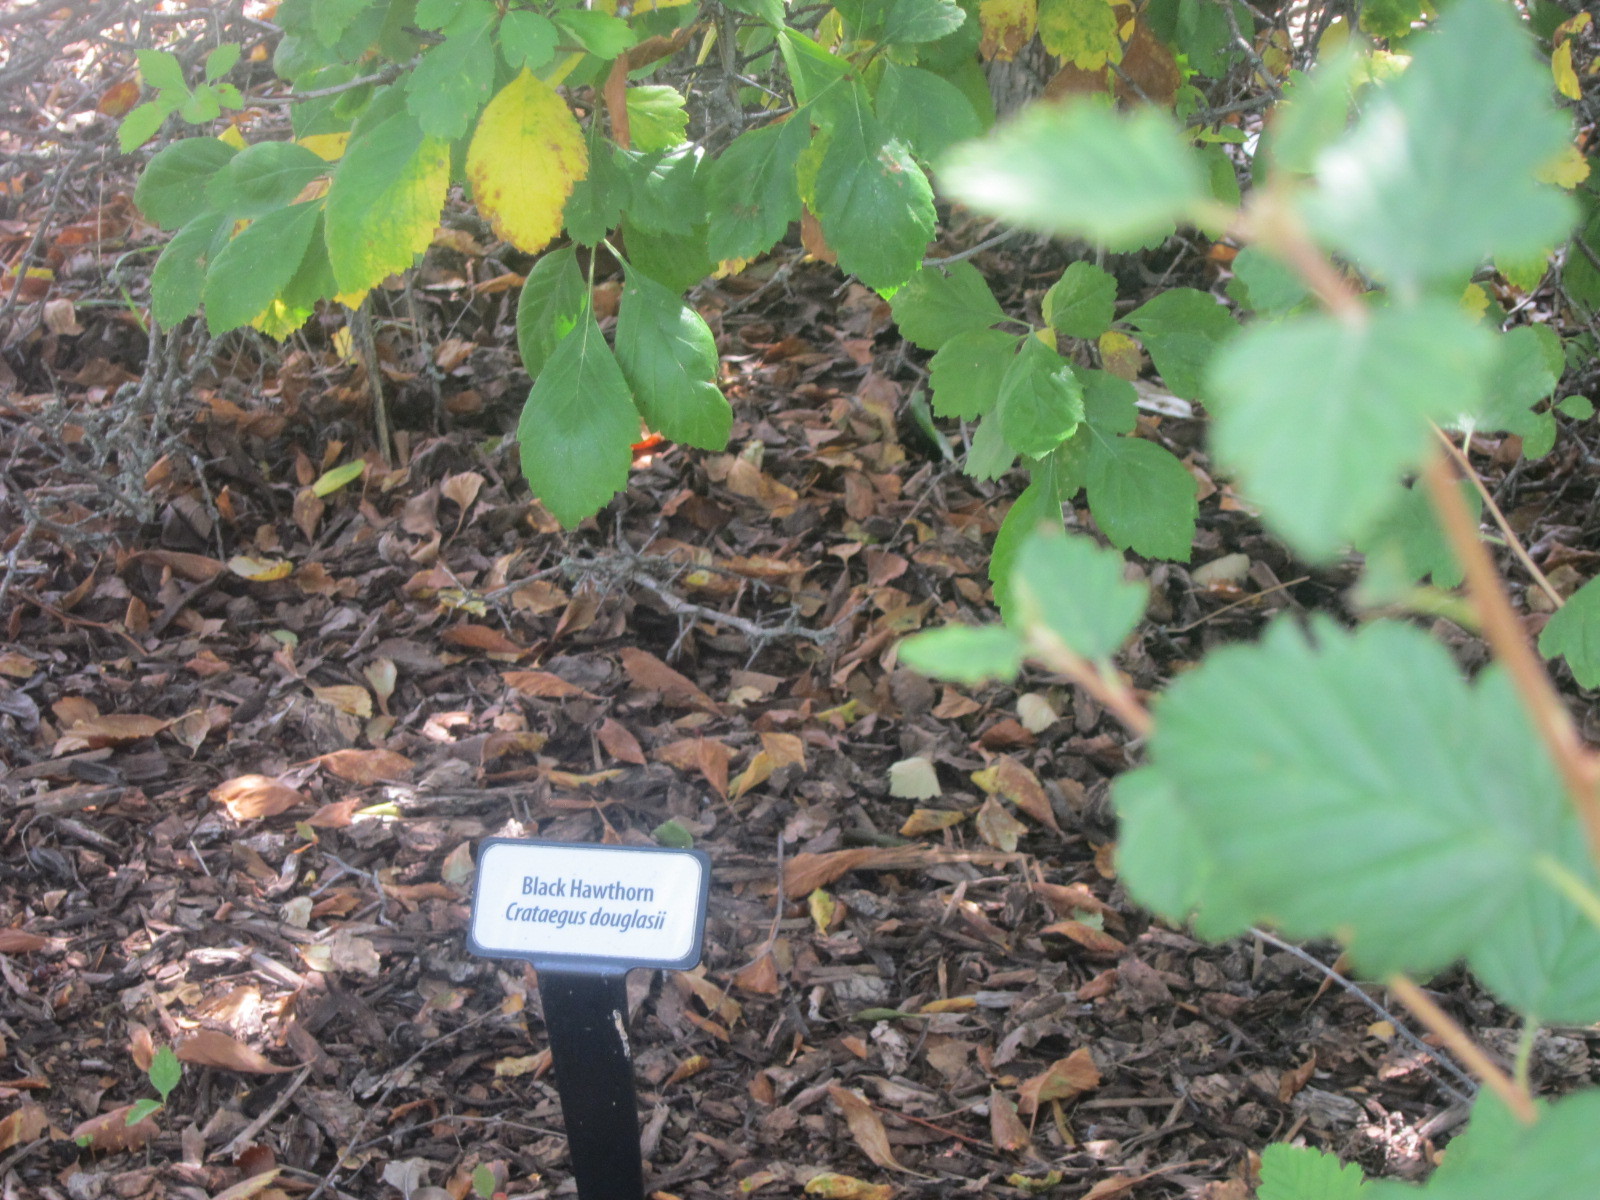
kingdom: Plantae
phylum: Tracheophyta
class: Magnoliopsida
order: Rosales
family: Rosaceae
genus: Crataegus
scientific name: Crataegus douglasii
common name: Black hawthorn
